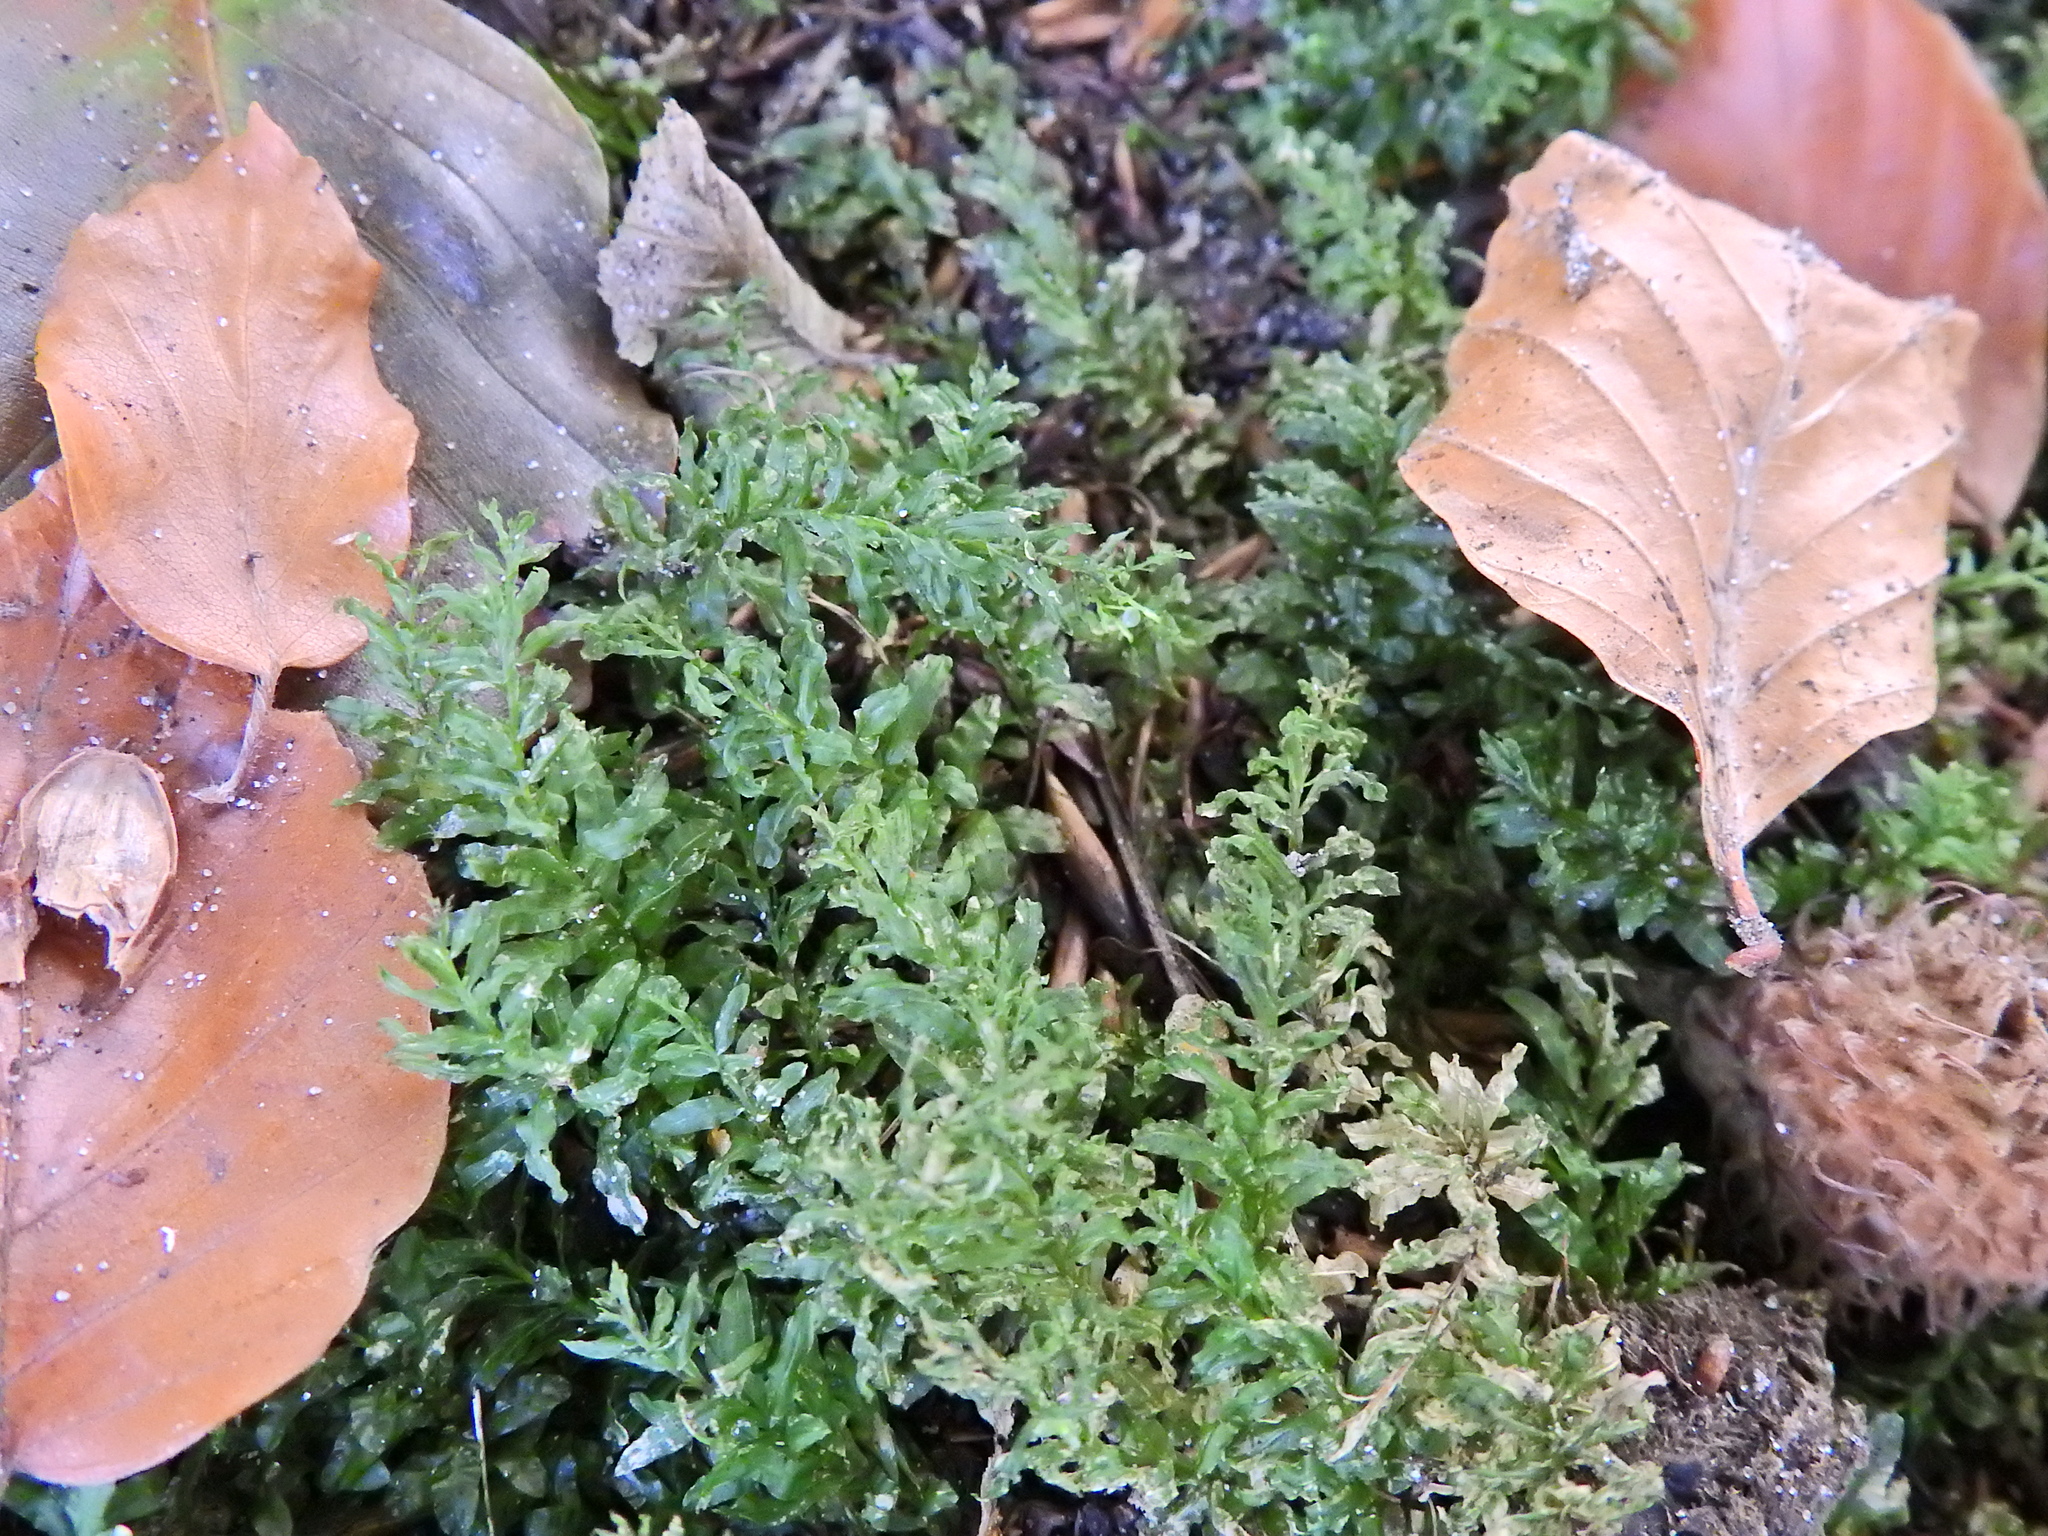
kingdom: Plantae
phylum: Bryophyta
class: Bryopsida
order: Bryales
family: Mniaceae
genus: Plagiomnium
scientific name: Plagiomnium undulatum
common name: Hart's-tongue thyme-moss
